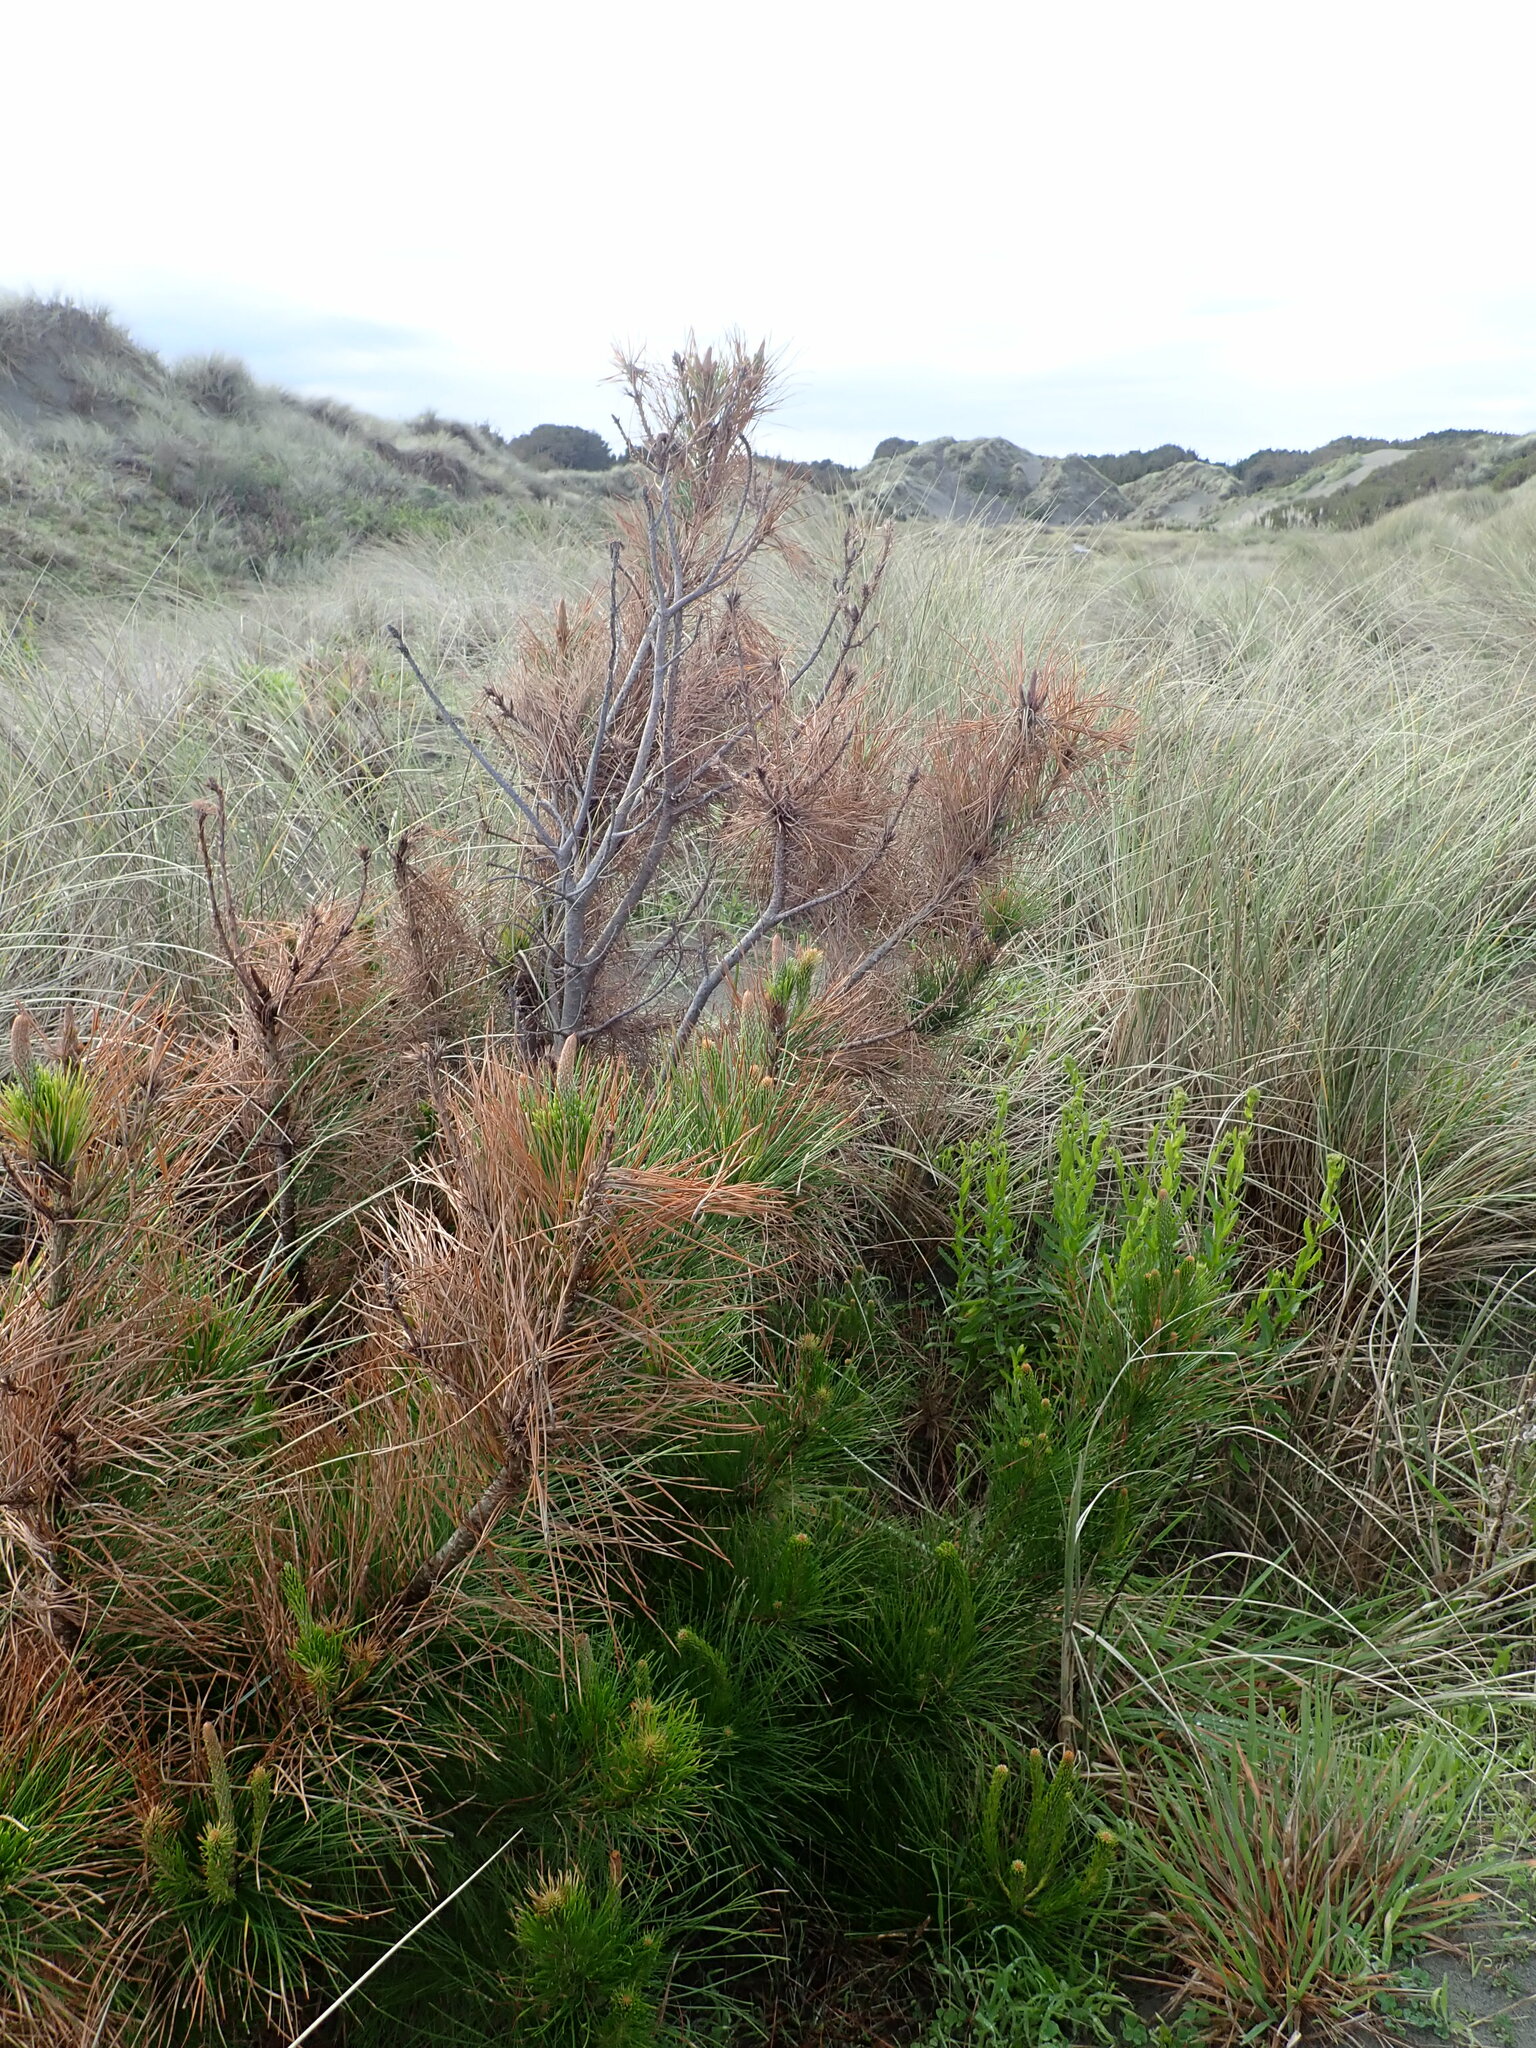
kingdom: Plantae
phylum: Tracheophyta
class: Pinopsida
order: Pinales
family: Pinaceae
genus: Pinus
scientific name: Pinus radiata
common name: Monterey pine
